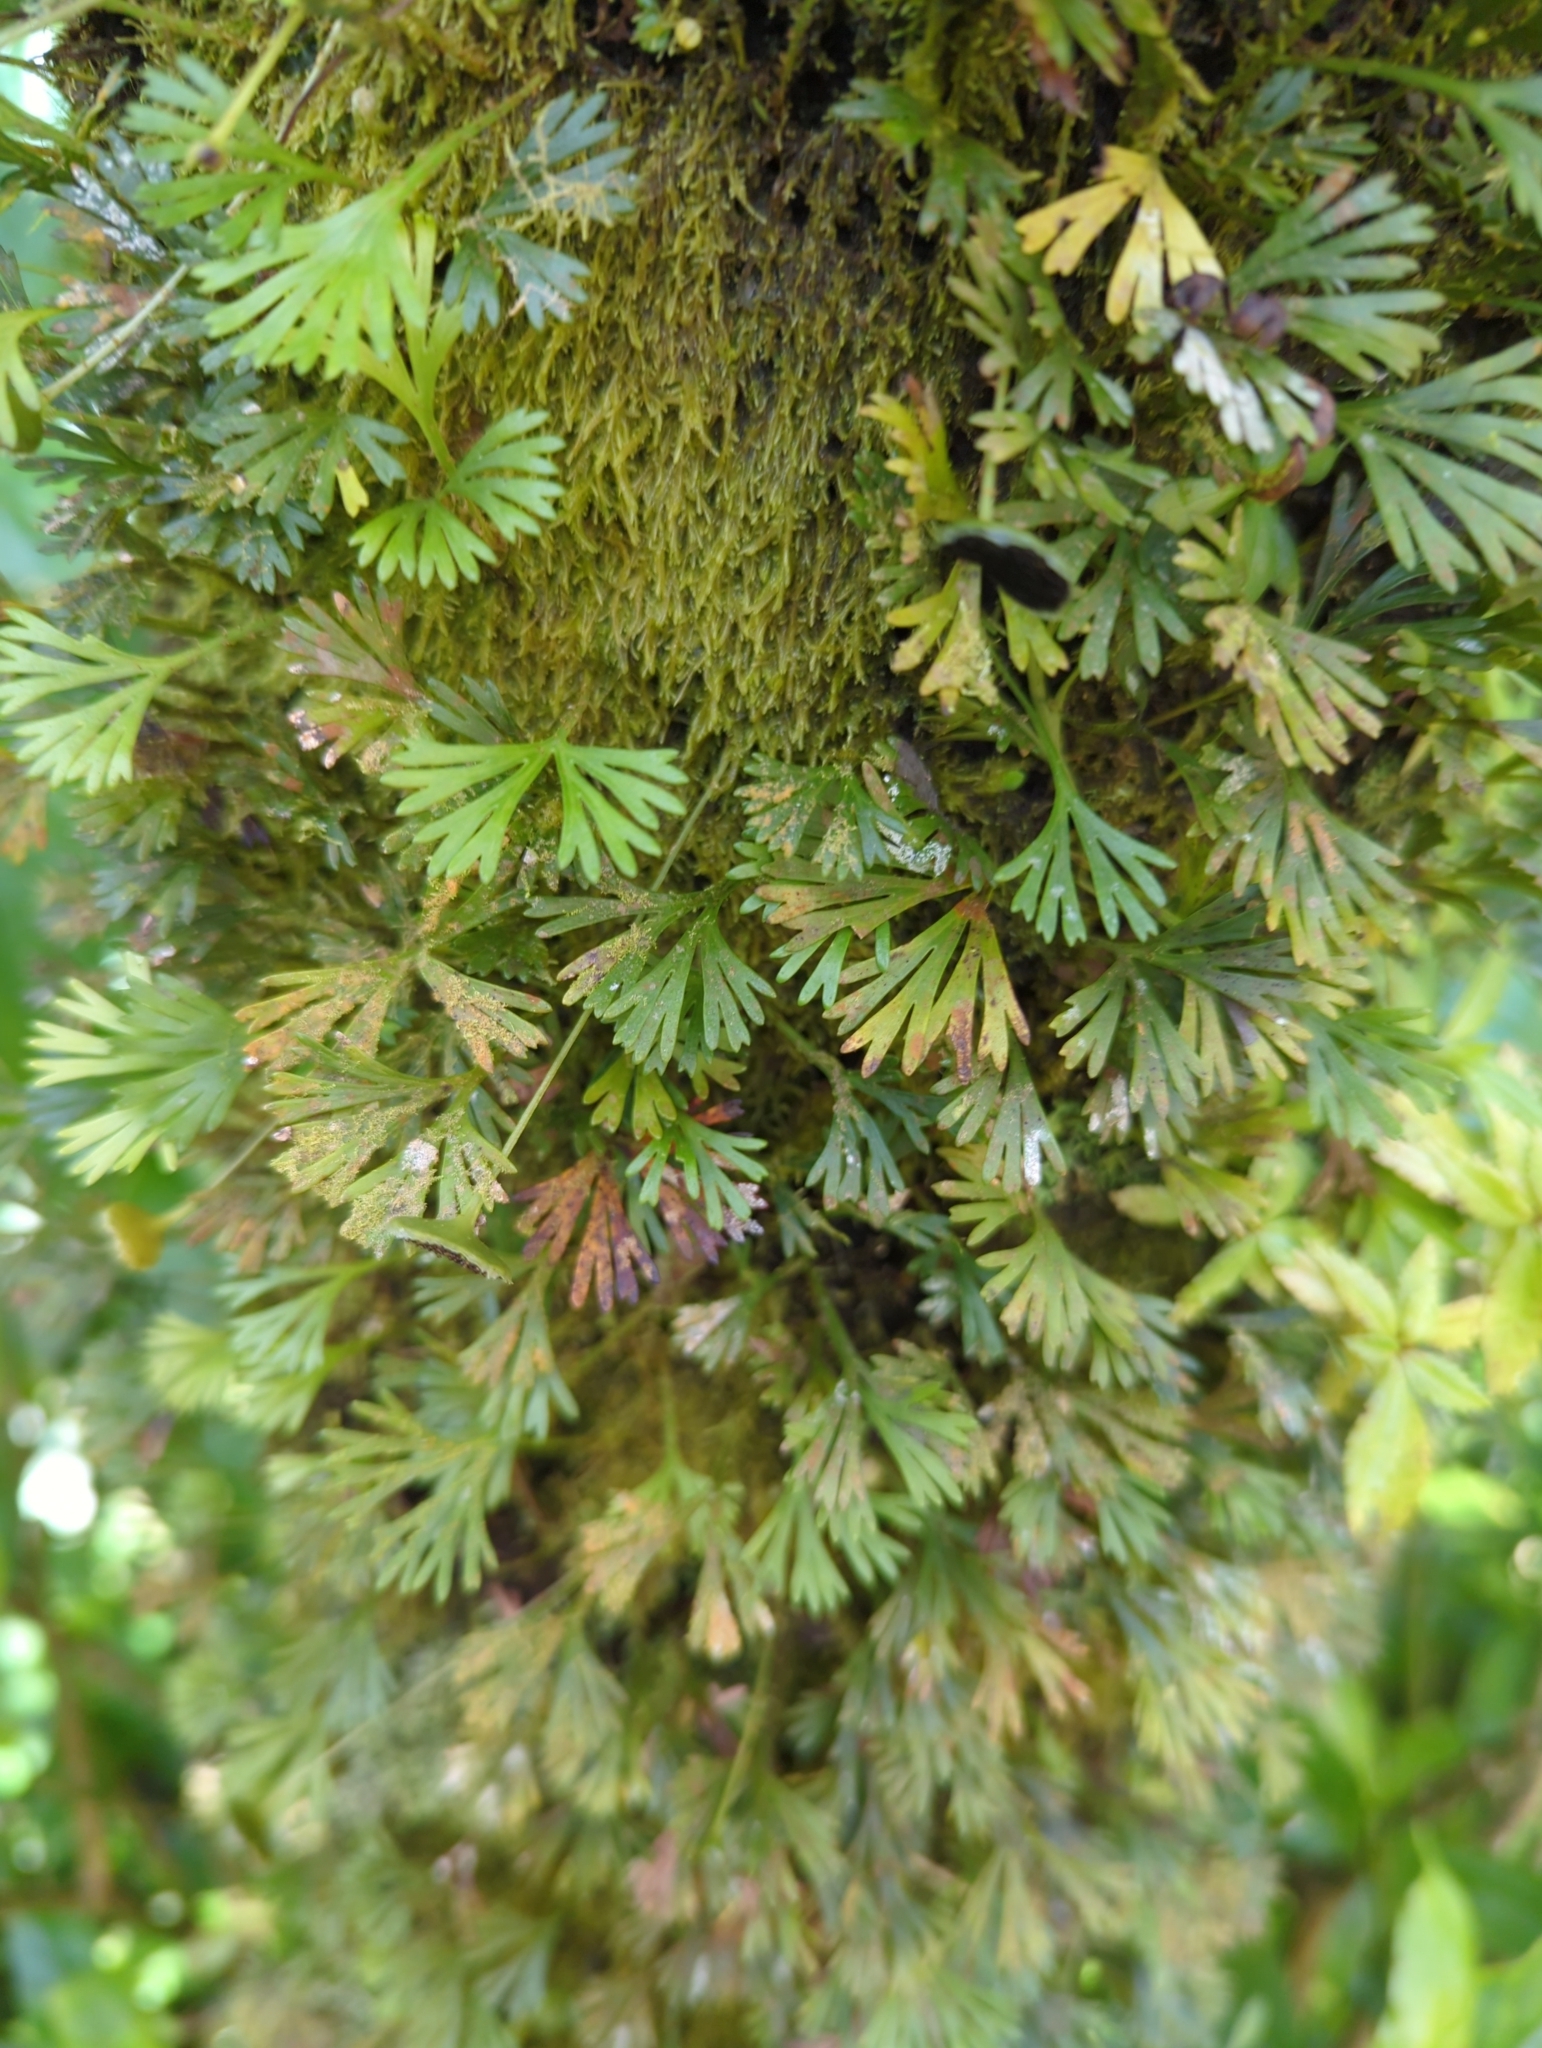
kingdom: Plantae
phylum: Tracheophyta
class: Polypodiopsida
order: Polypodiales
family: Dryopteridaceae
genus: Elaphoglossum
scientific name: Elaphoglossum peltatum
